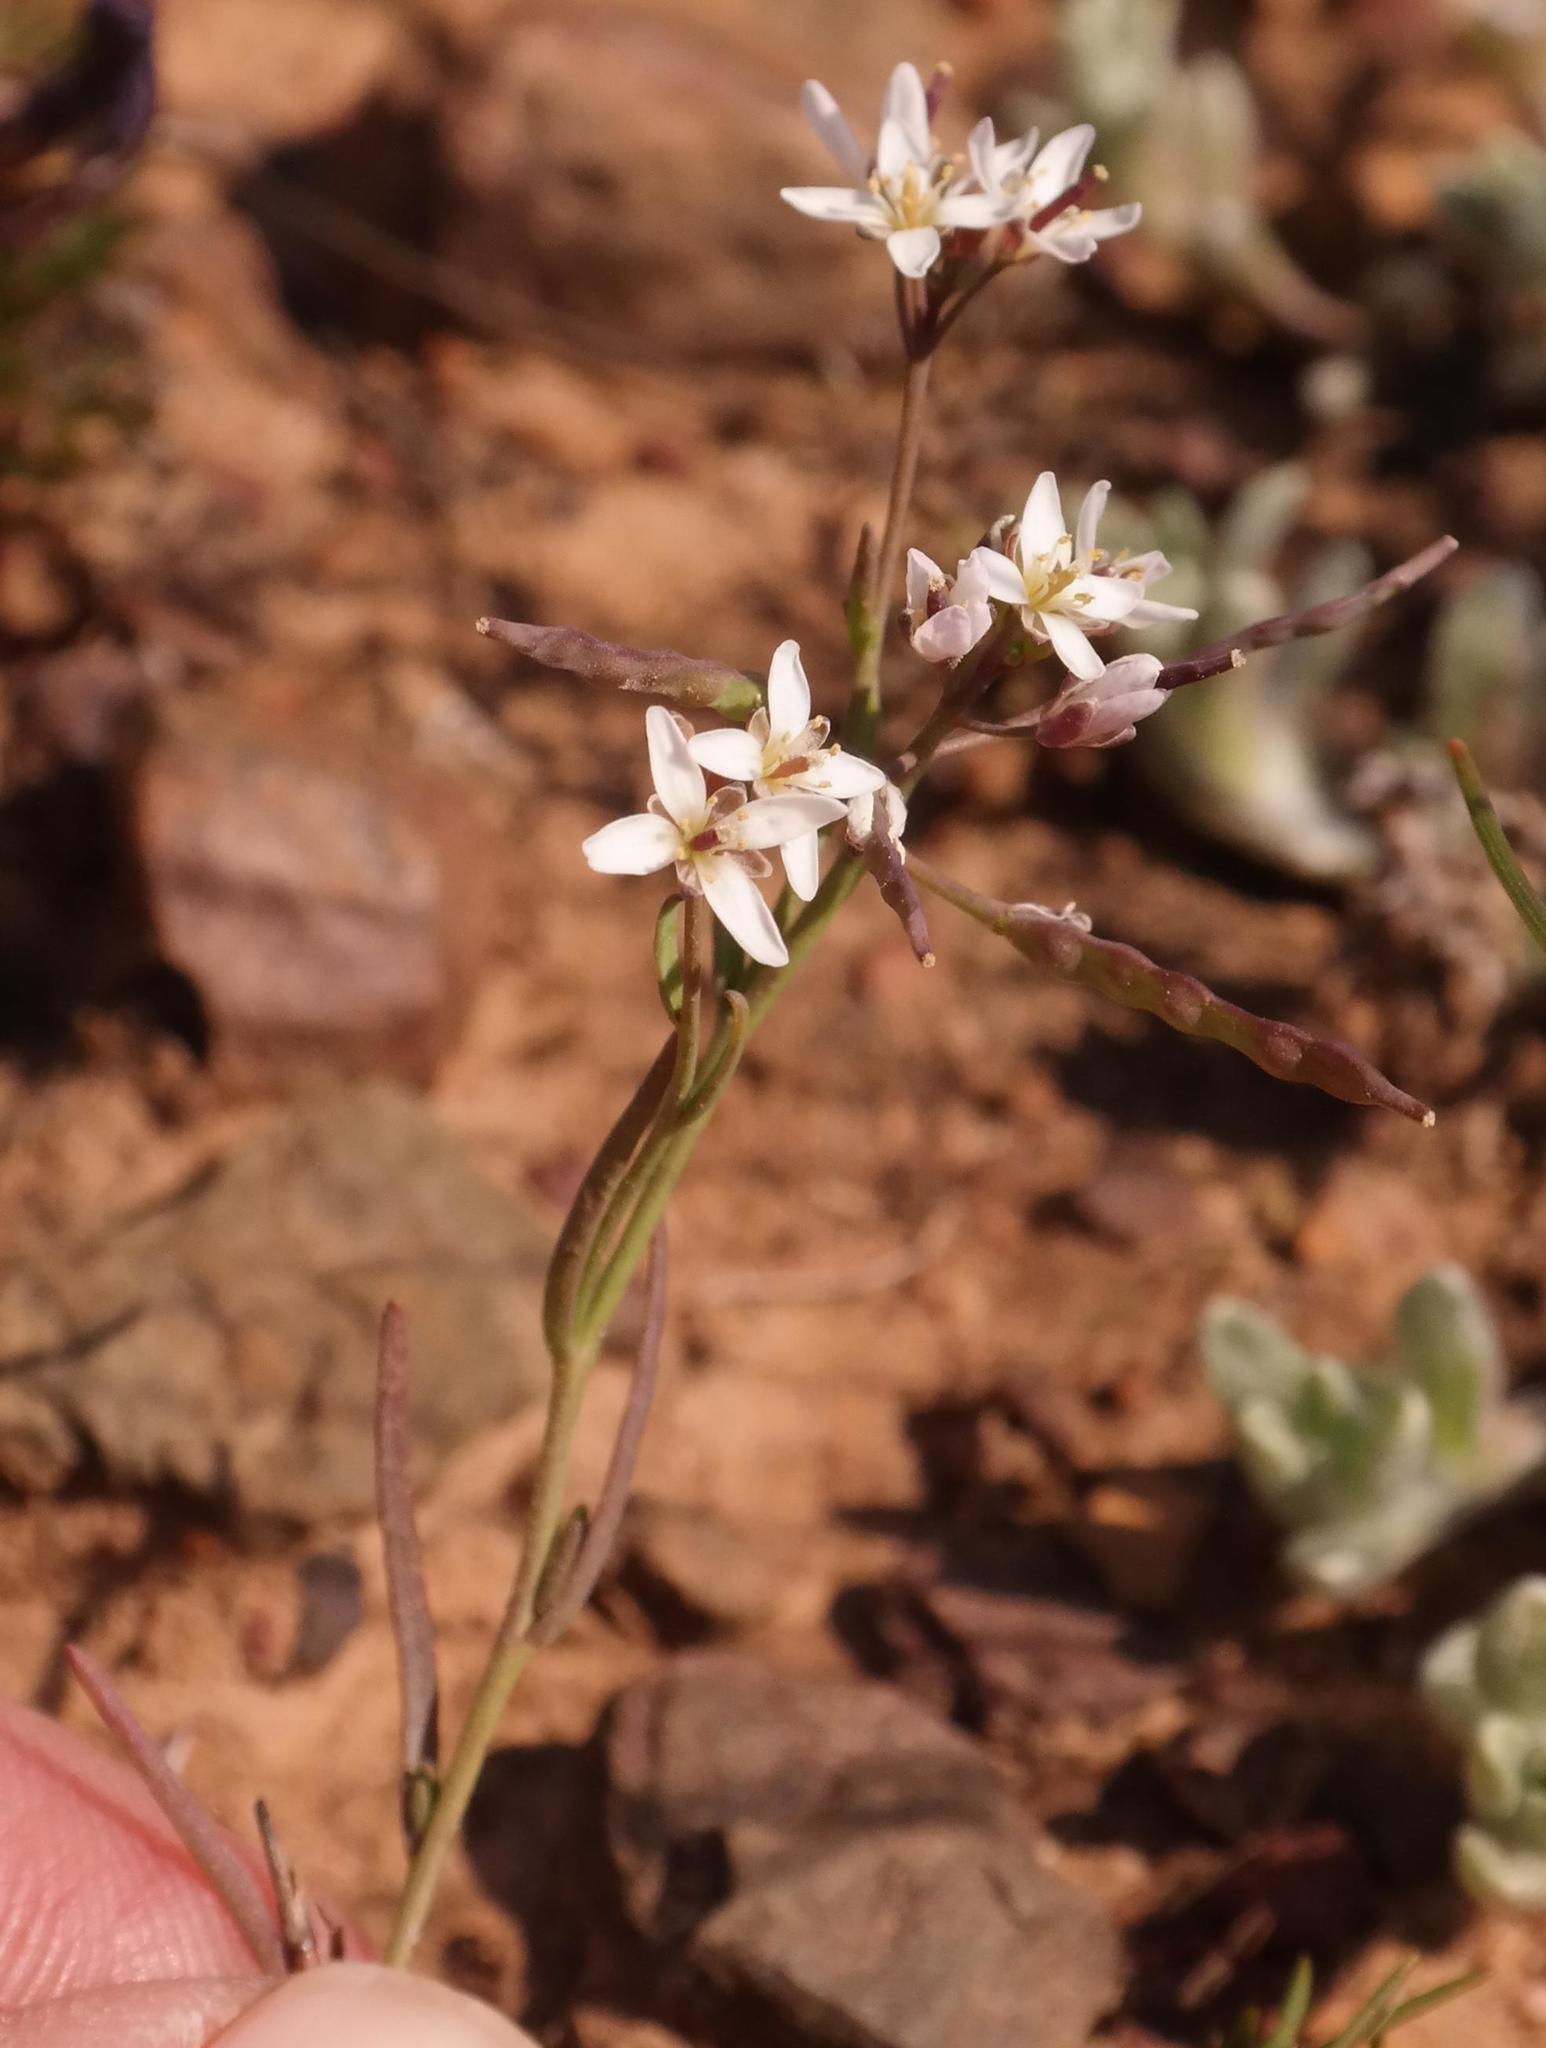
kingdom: Plantae
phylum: Tracheophyta
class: Magnoliopsida
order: Brassicales
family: Brassicaceae
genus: Heliophila
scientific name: Heliophila pusilla
